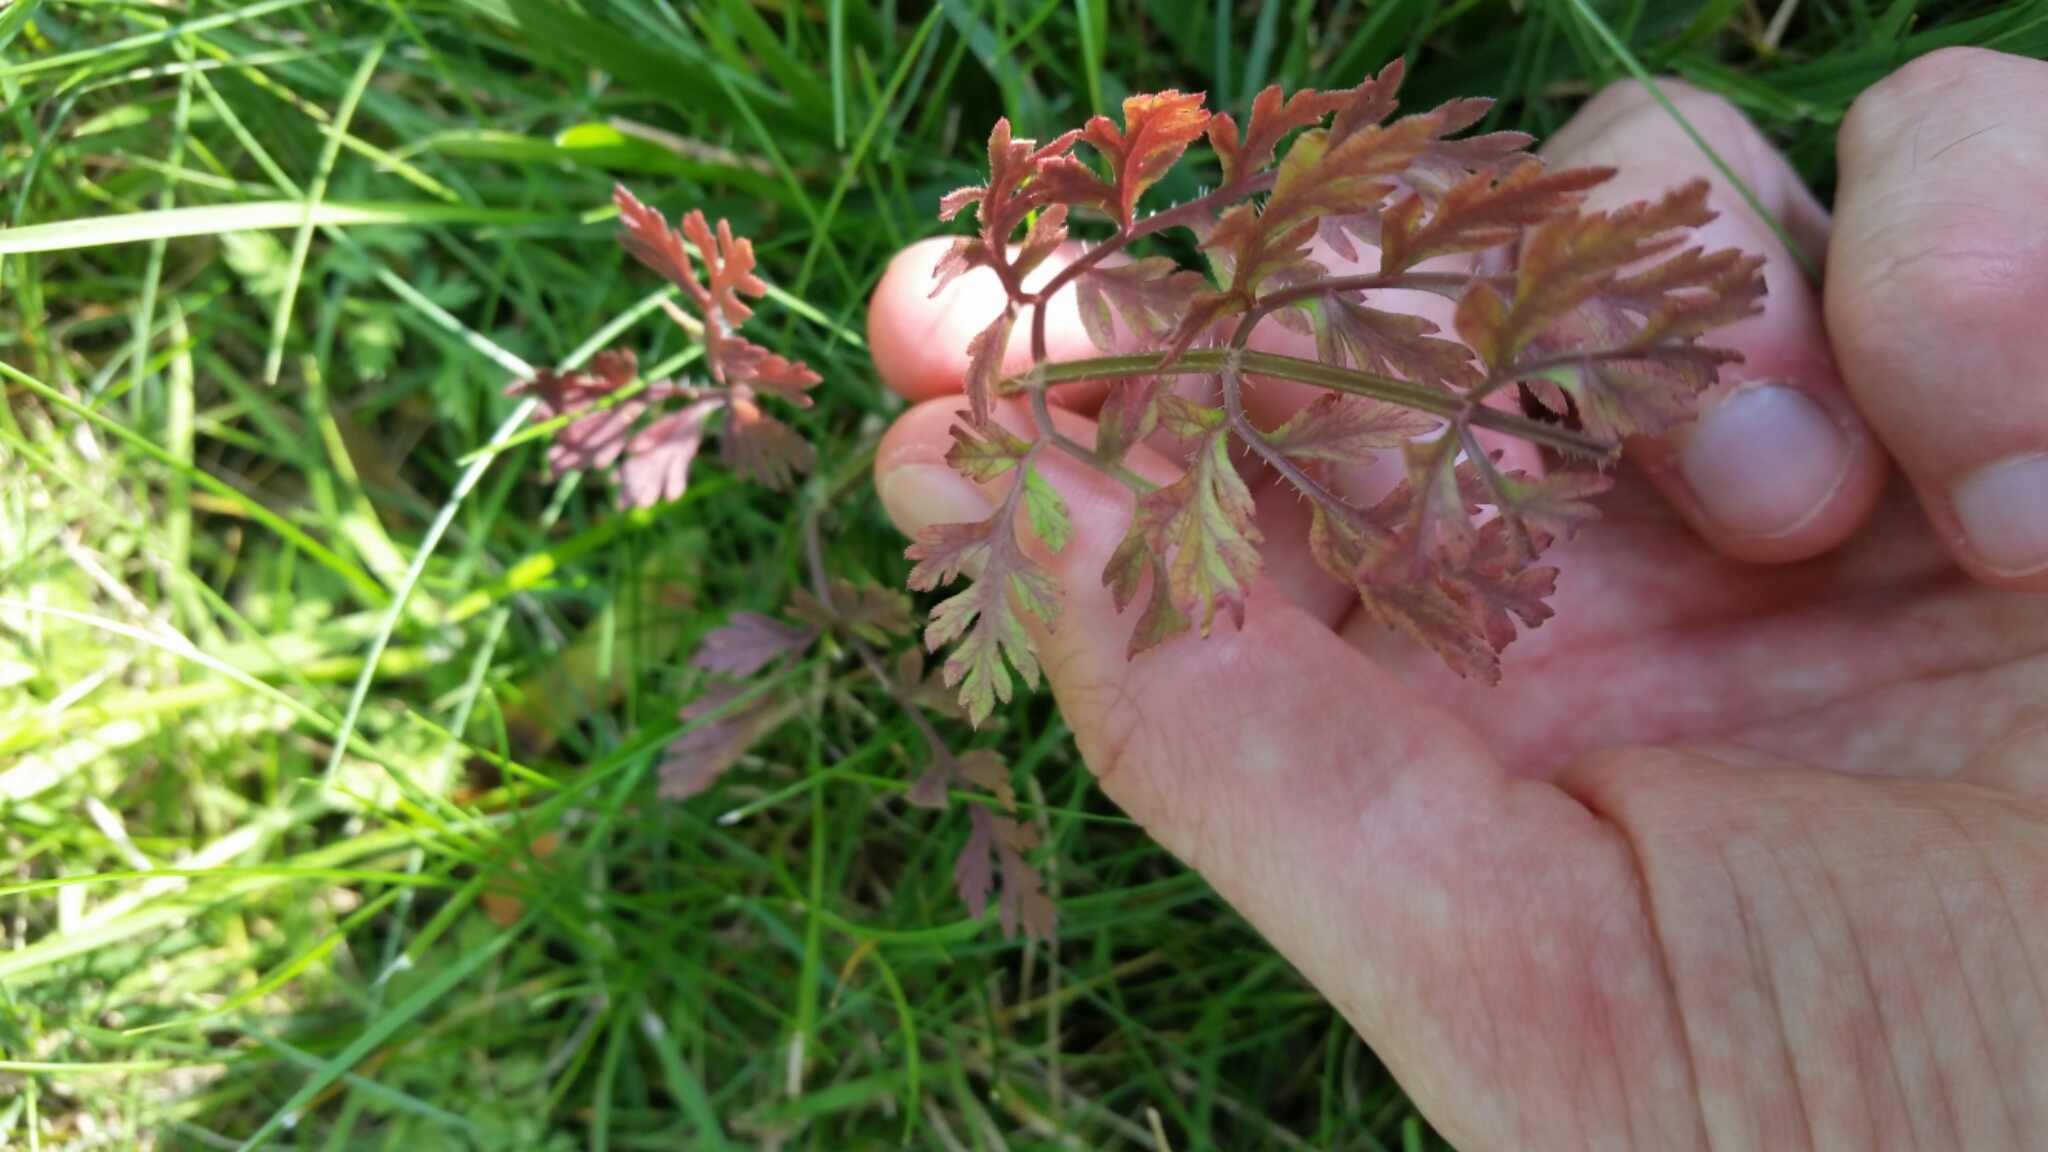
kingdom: Plantae
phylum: Tracheophyta
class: Magnoliopsida
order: Apiales
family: Apiaceae
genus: Daucus
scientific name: Daucus carota
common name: Wild carrot
